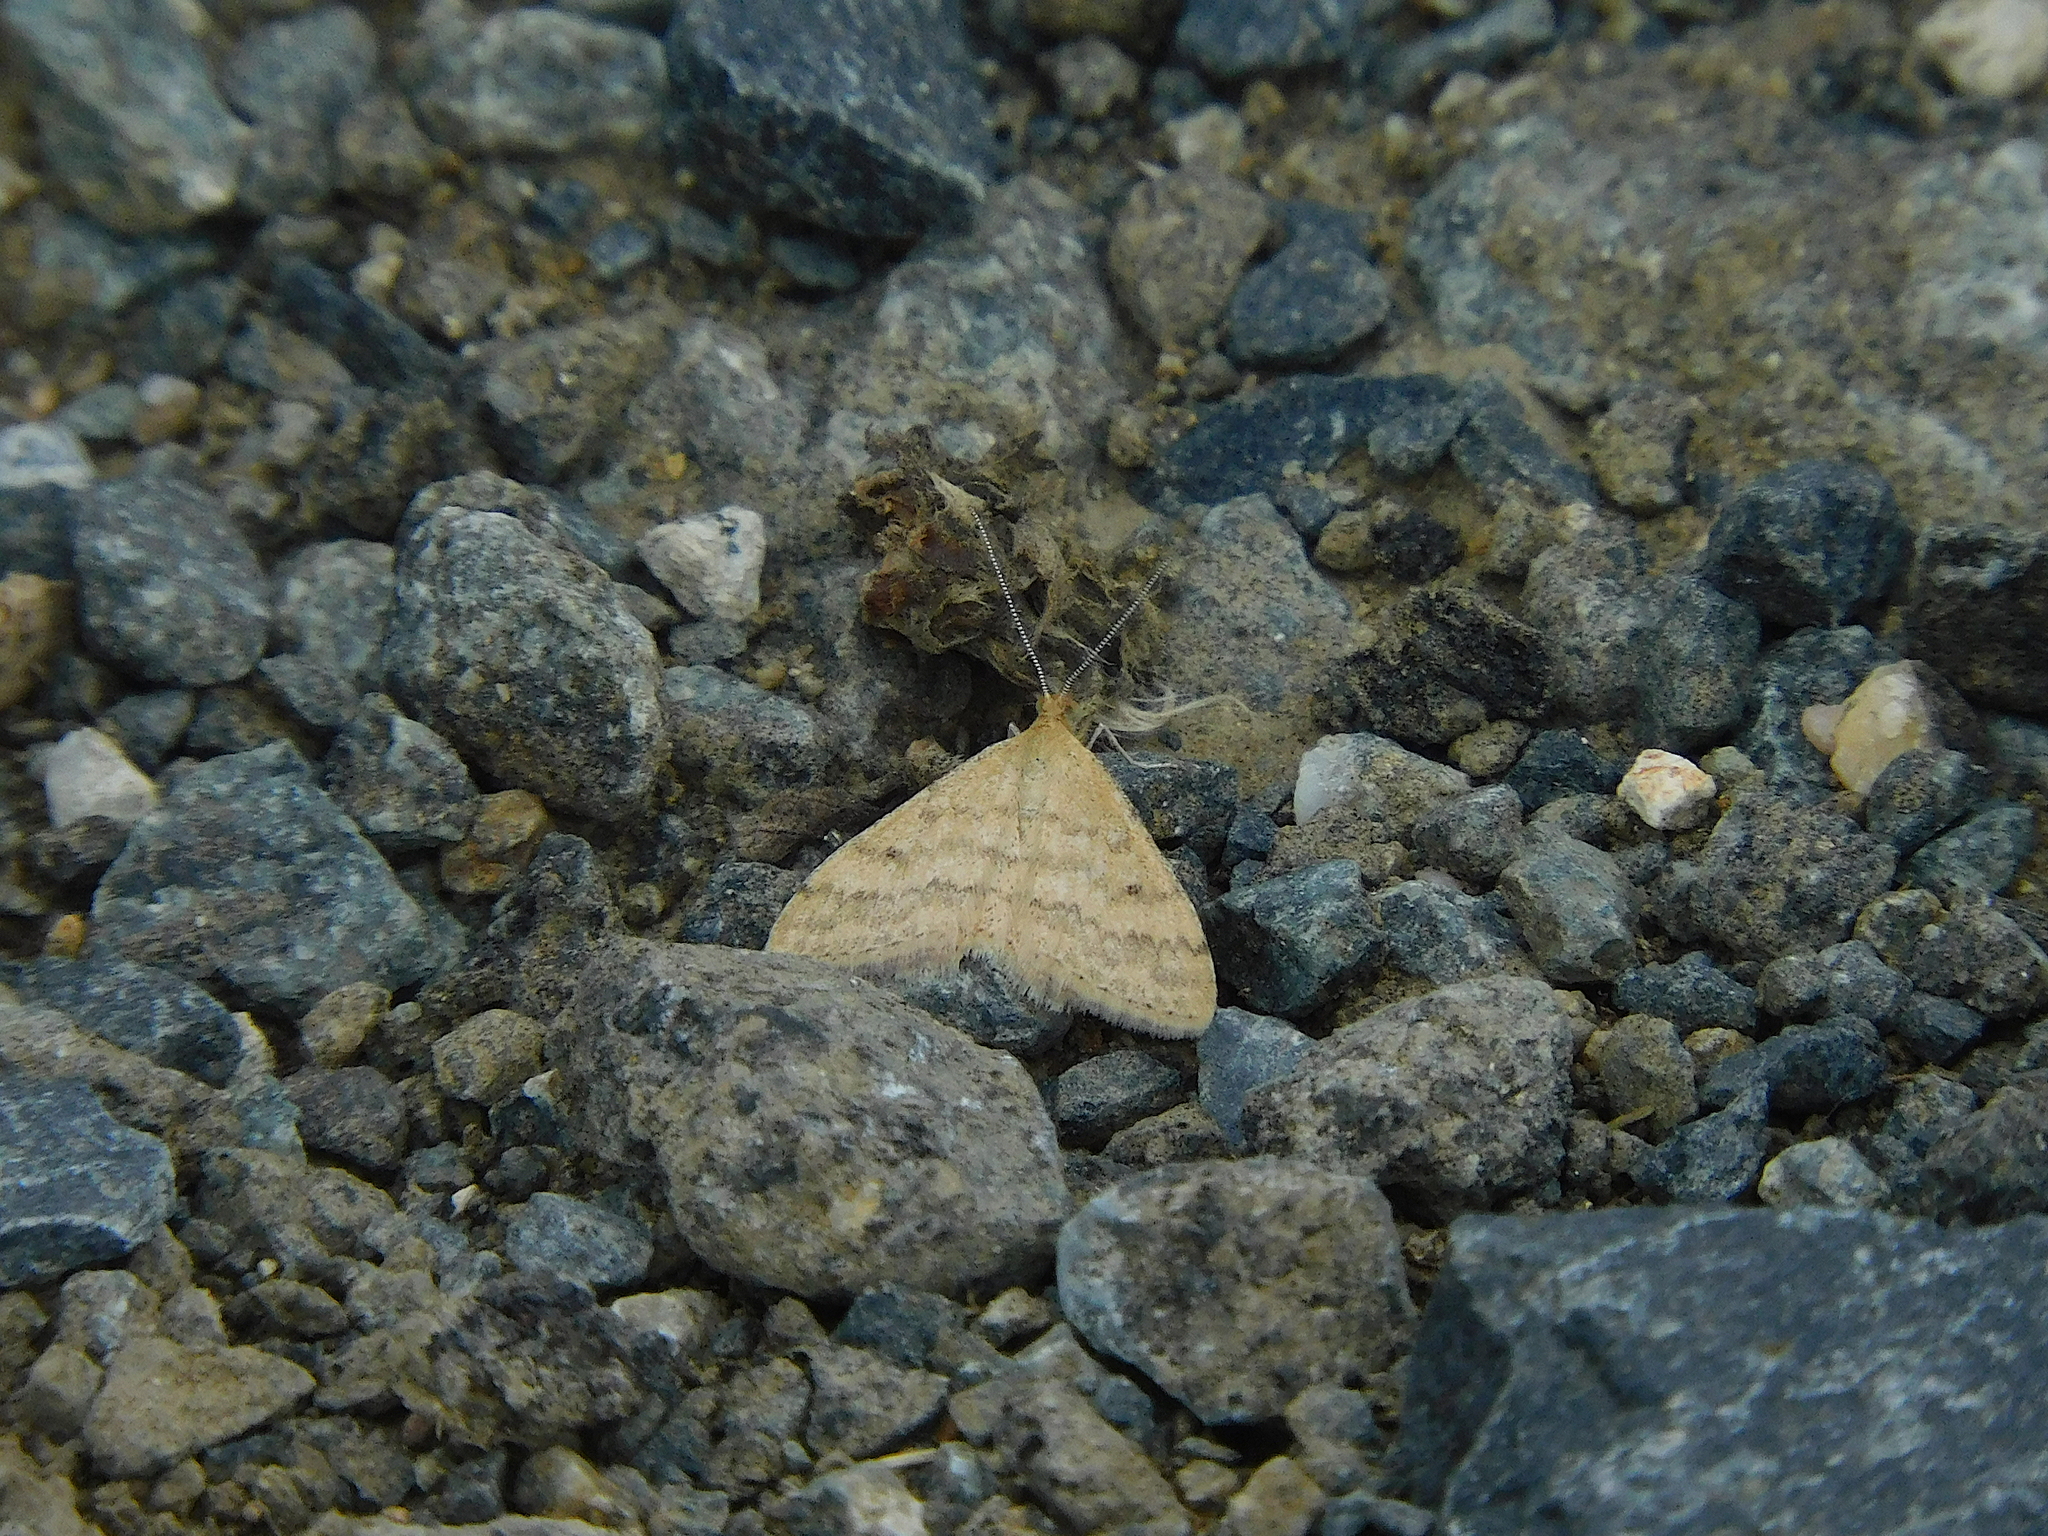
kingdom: Animalia
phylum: Arthropoda
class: Insecta
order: Lepidoptera
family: Geometridae
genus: Scopula
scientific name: Scopula rubraria
